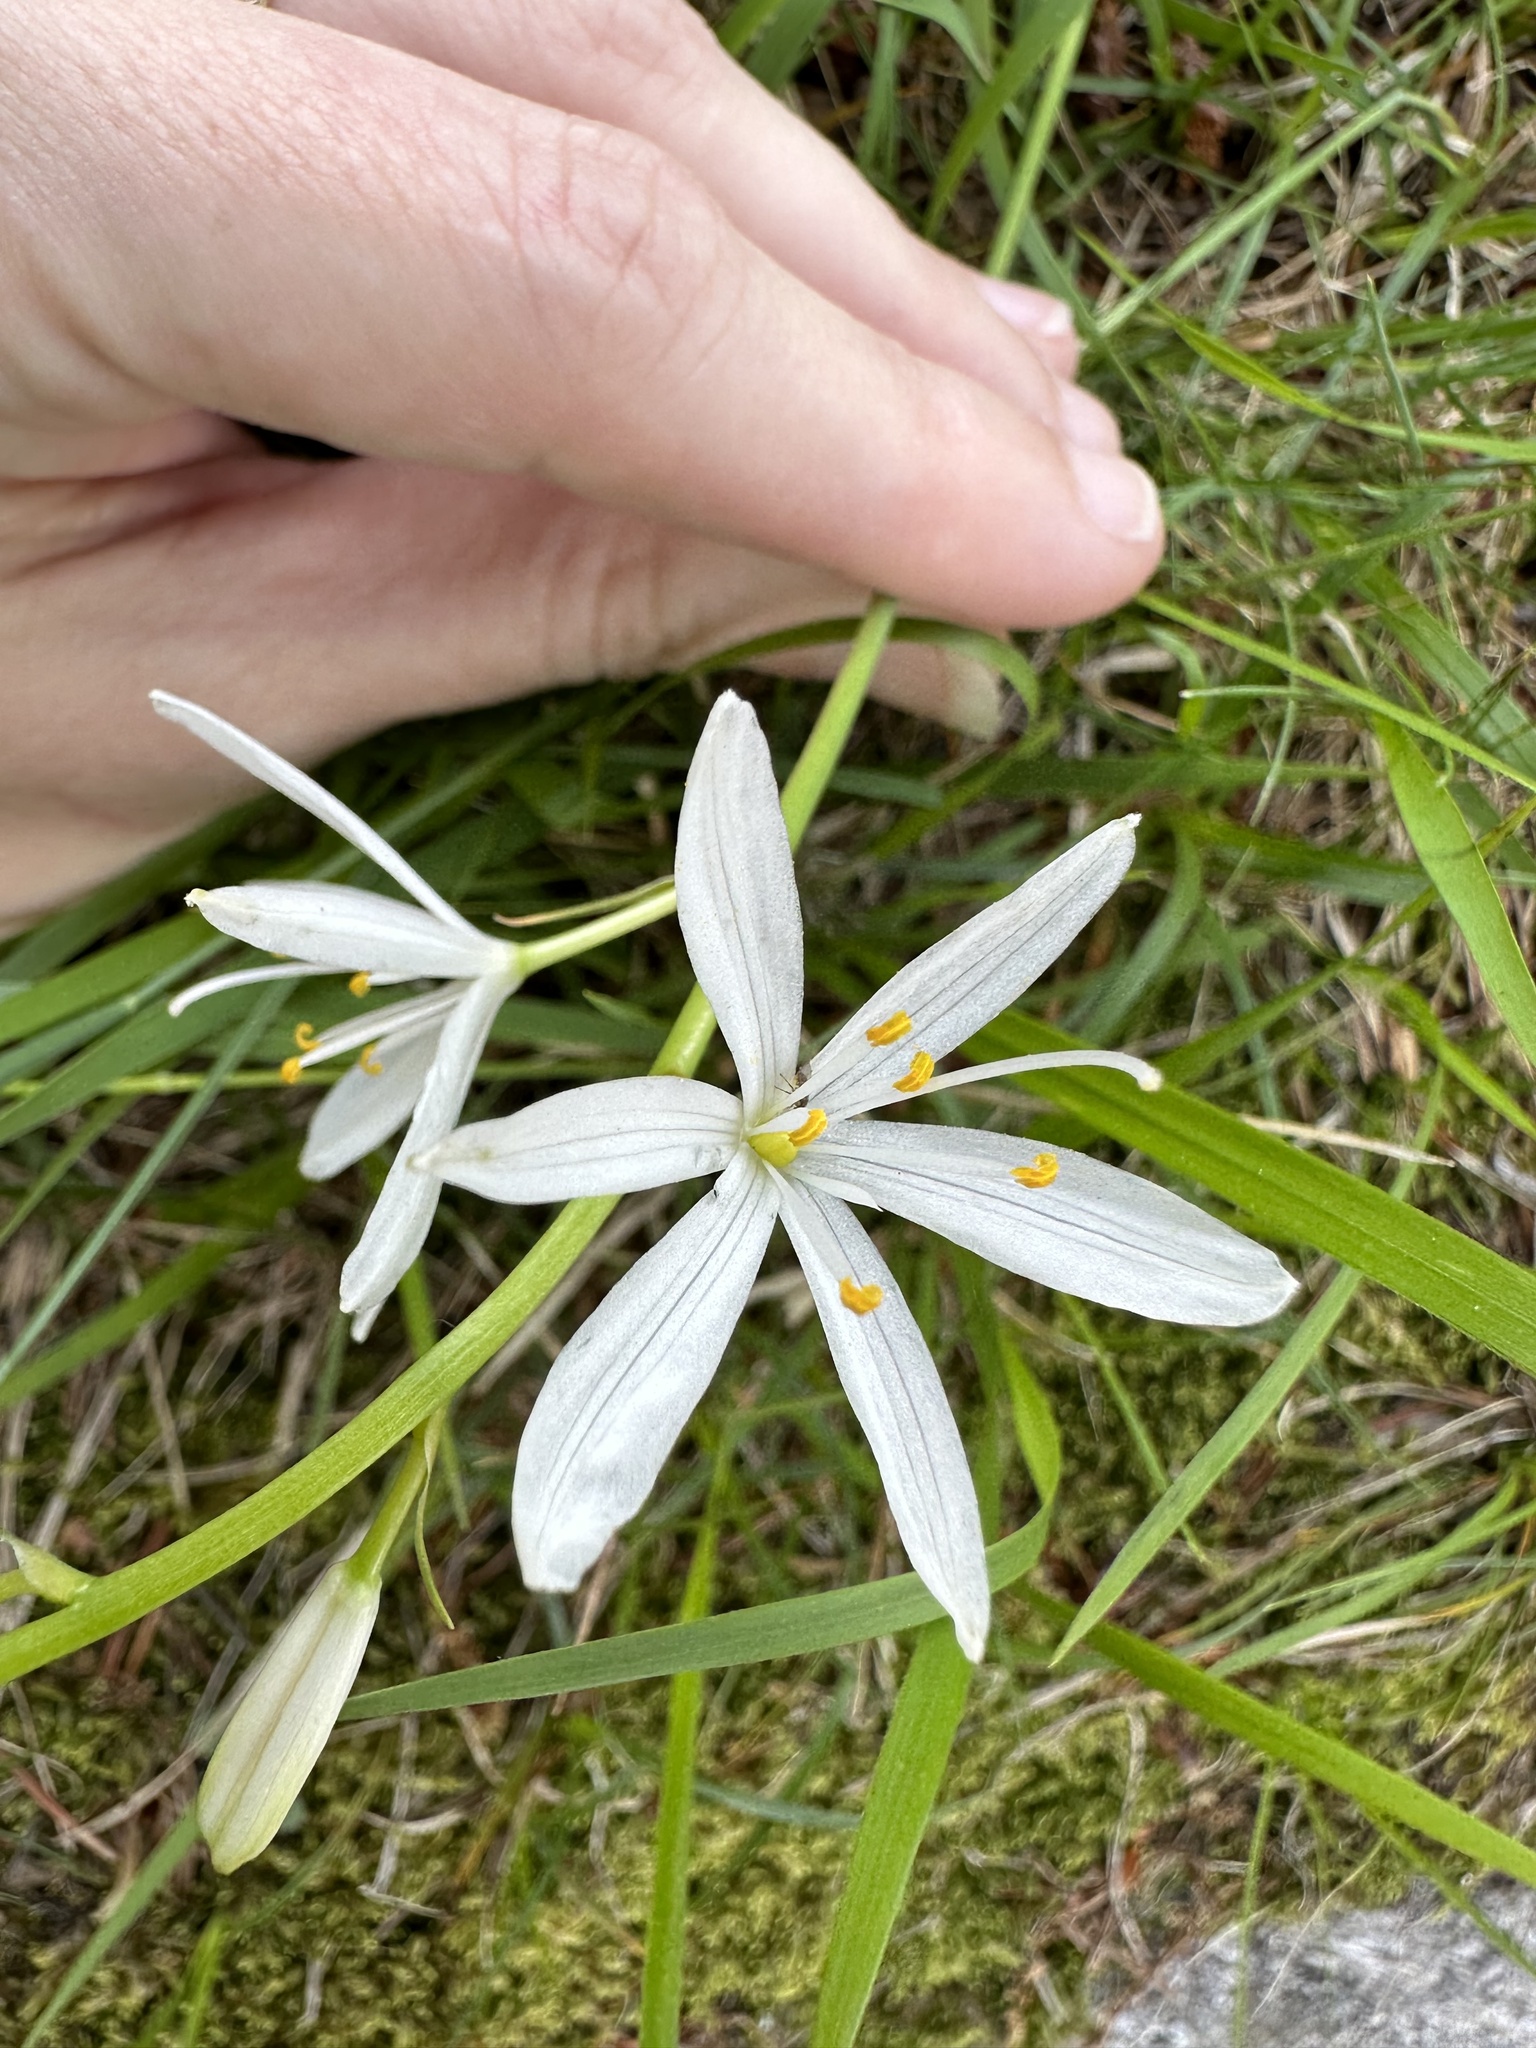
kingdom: Plantae
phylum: Tracheophyta
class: Liliopsida
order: Asparagales
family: Asparagaceae
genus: Anthericum
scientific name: Anthericum liliago
